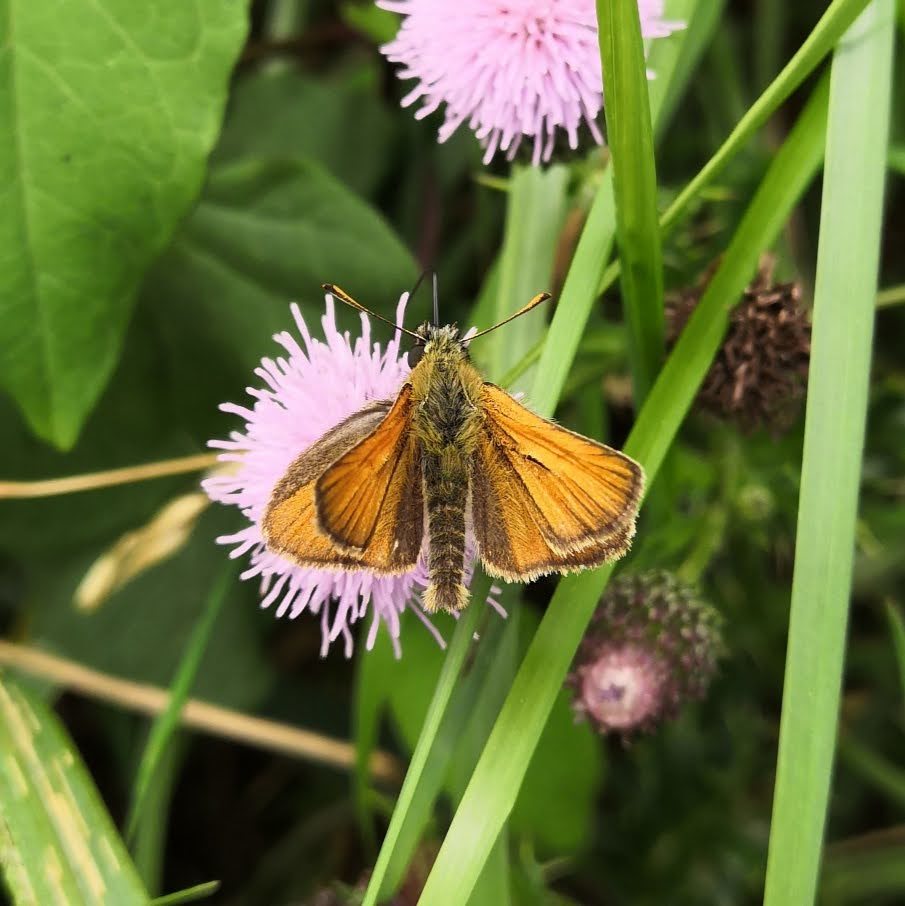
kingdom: Animalia
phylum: Arthropoda
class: Insecta
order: Lepidoptera
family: Hesperiidae
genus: Thymelicus
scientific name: Thymelicus sylvestris
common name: Small skipper
